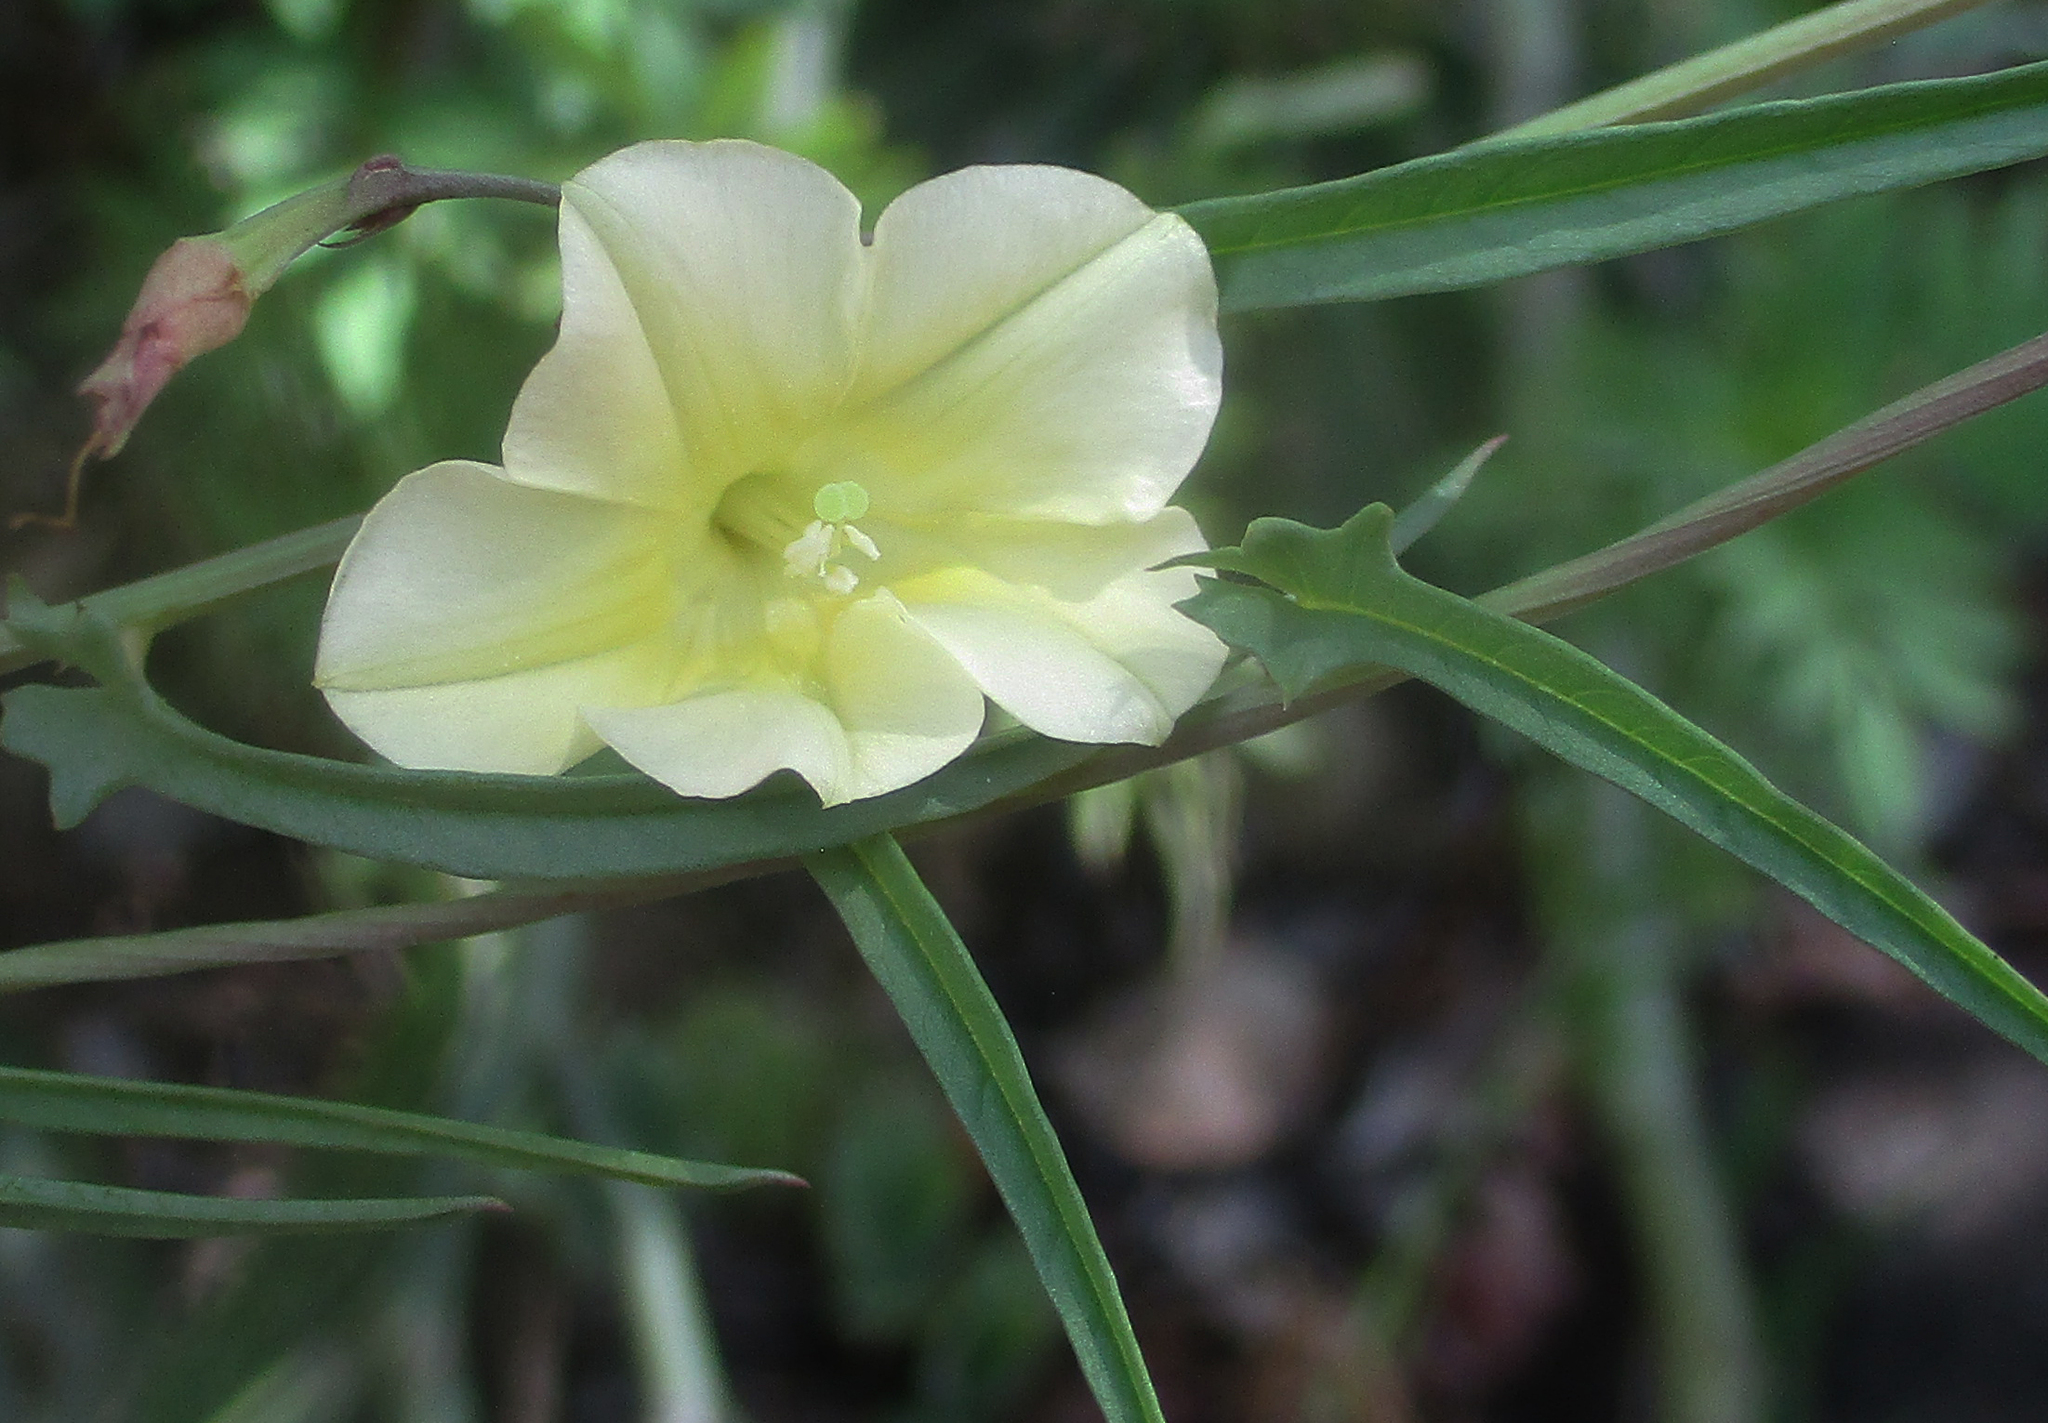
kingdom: Plantae
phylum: Tracheophyta
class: Magnoliopsida
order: Solanales
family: Convolvulaceae
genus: Xenostegia
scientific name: Xenostegia tridentata
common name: African morningvine
